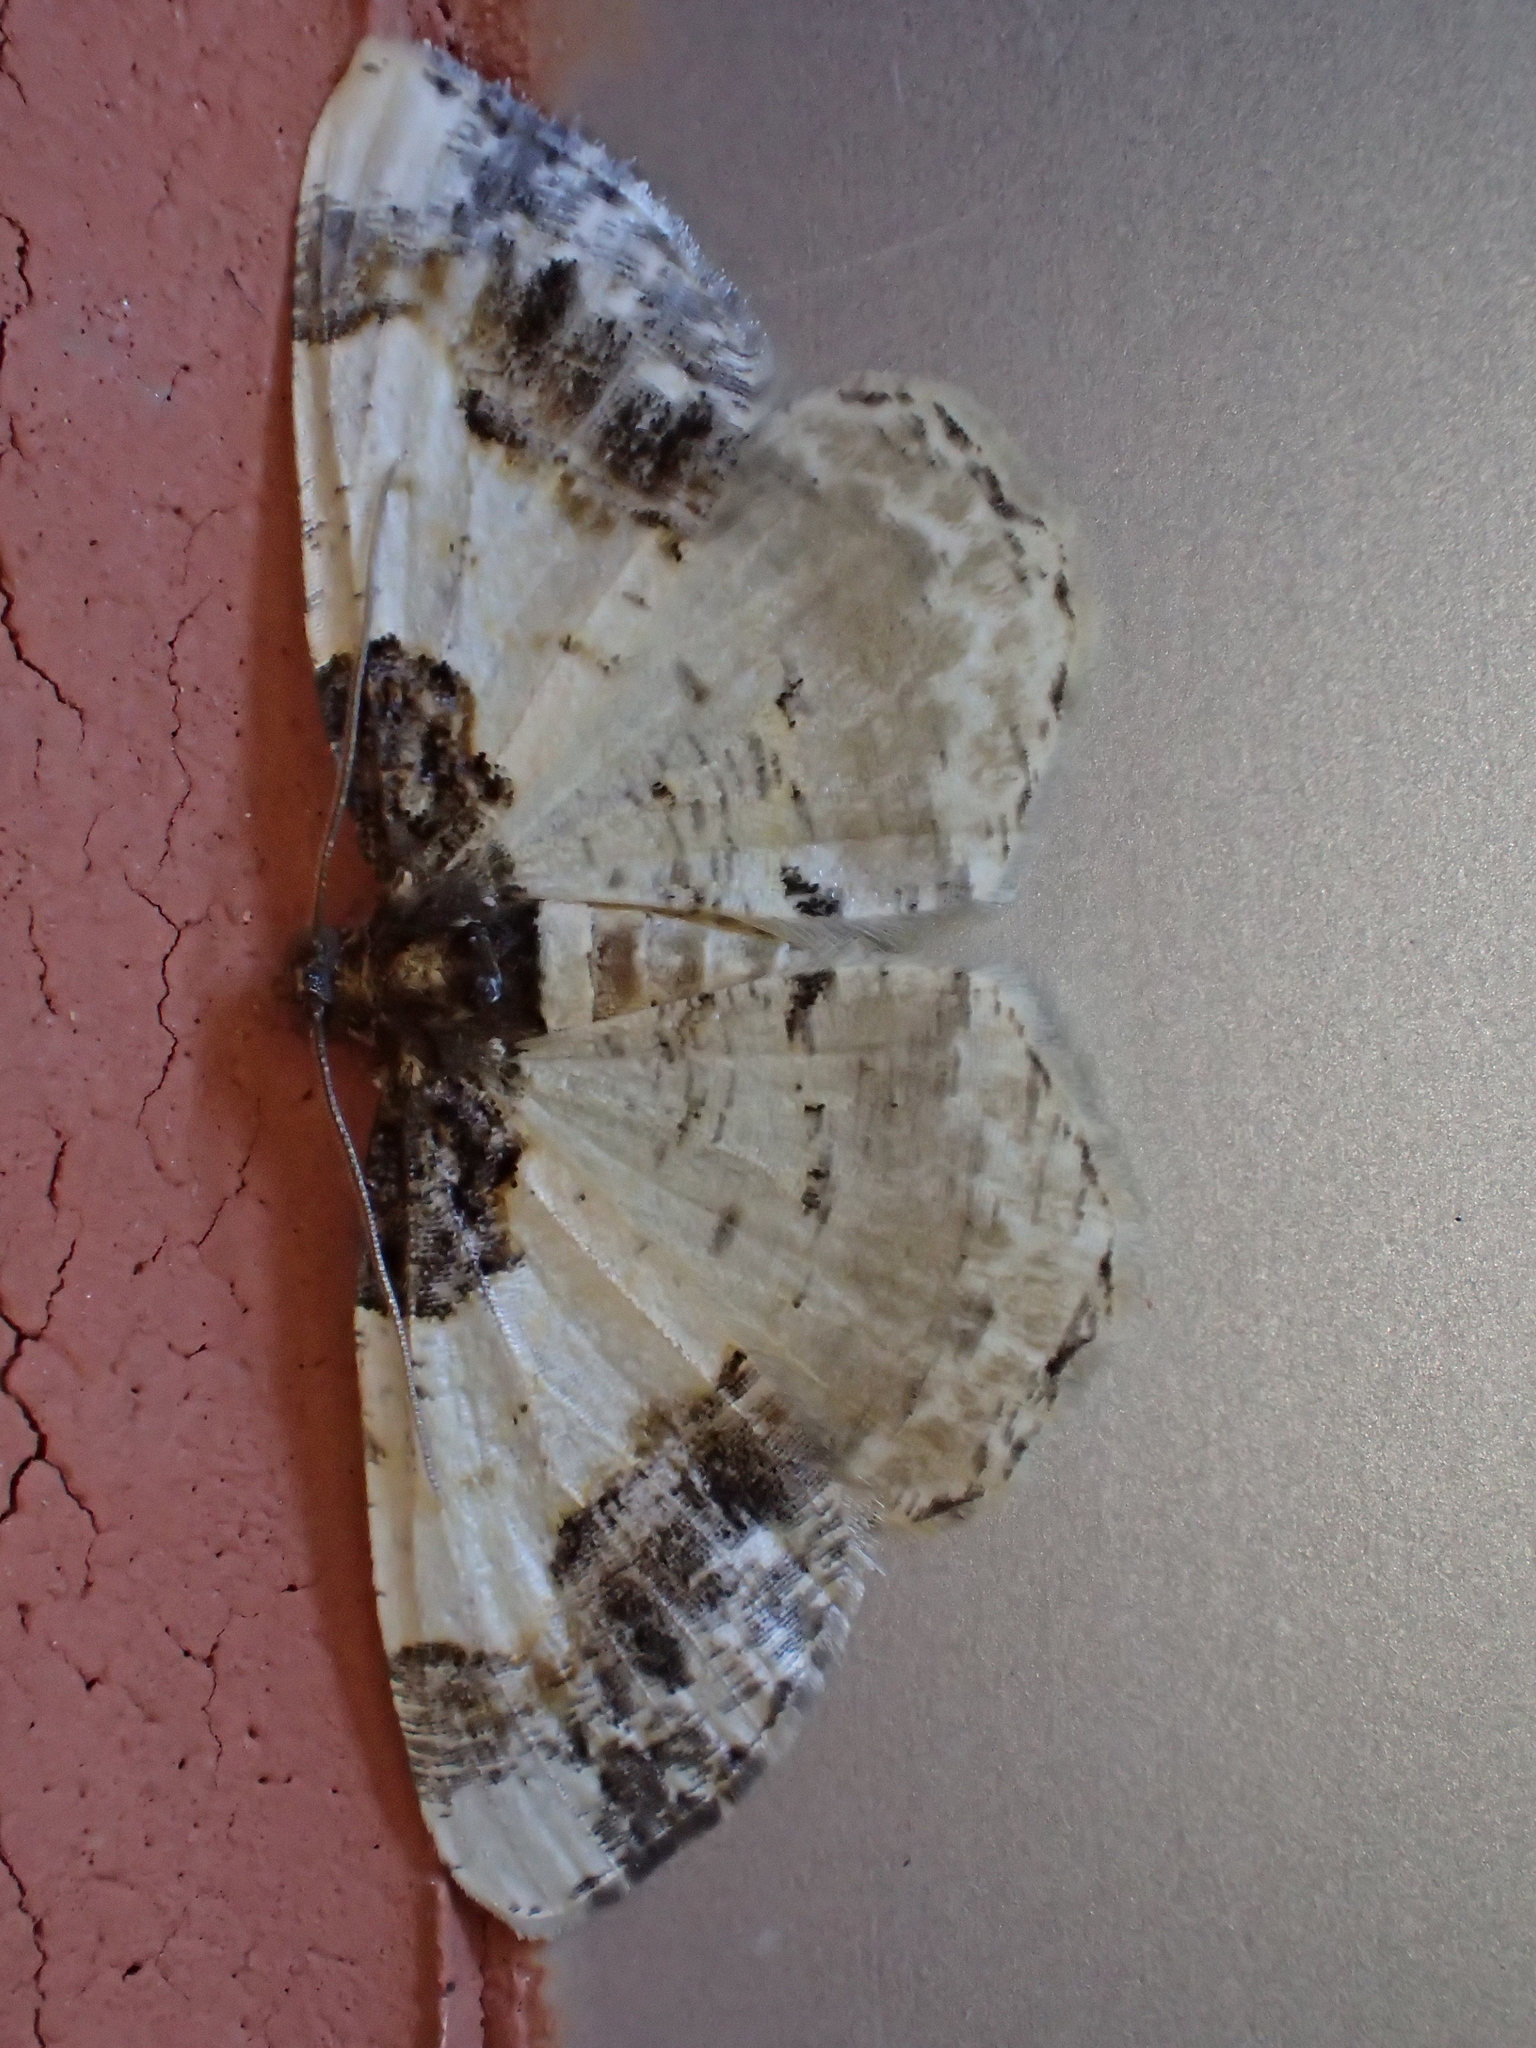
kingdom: Animalia
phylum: Arthropoda
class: Insecta
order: Lepidoptera
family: Geometridae
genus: Ligdia
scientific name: Ligdia adustata
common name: Scorched carpet
